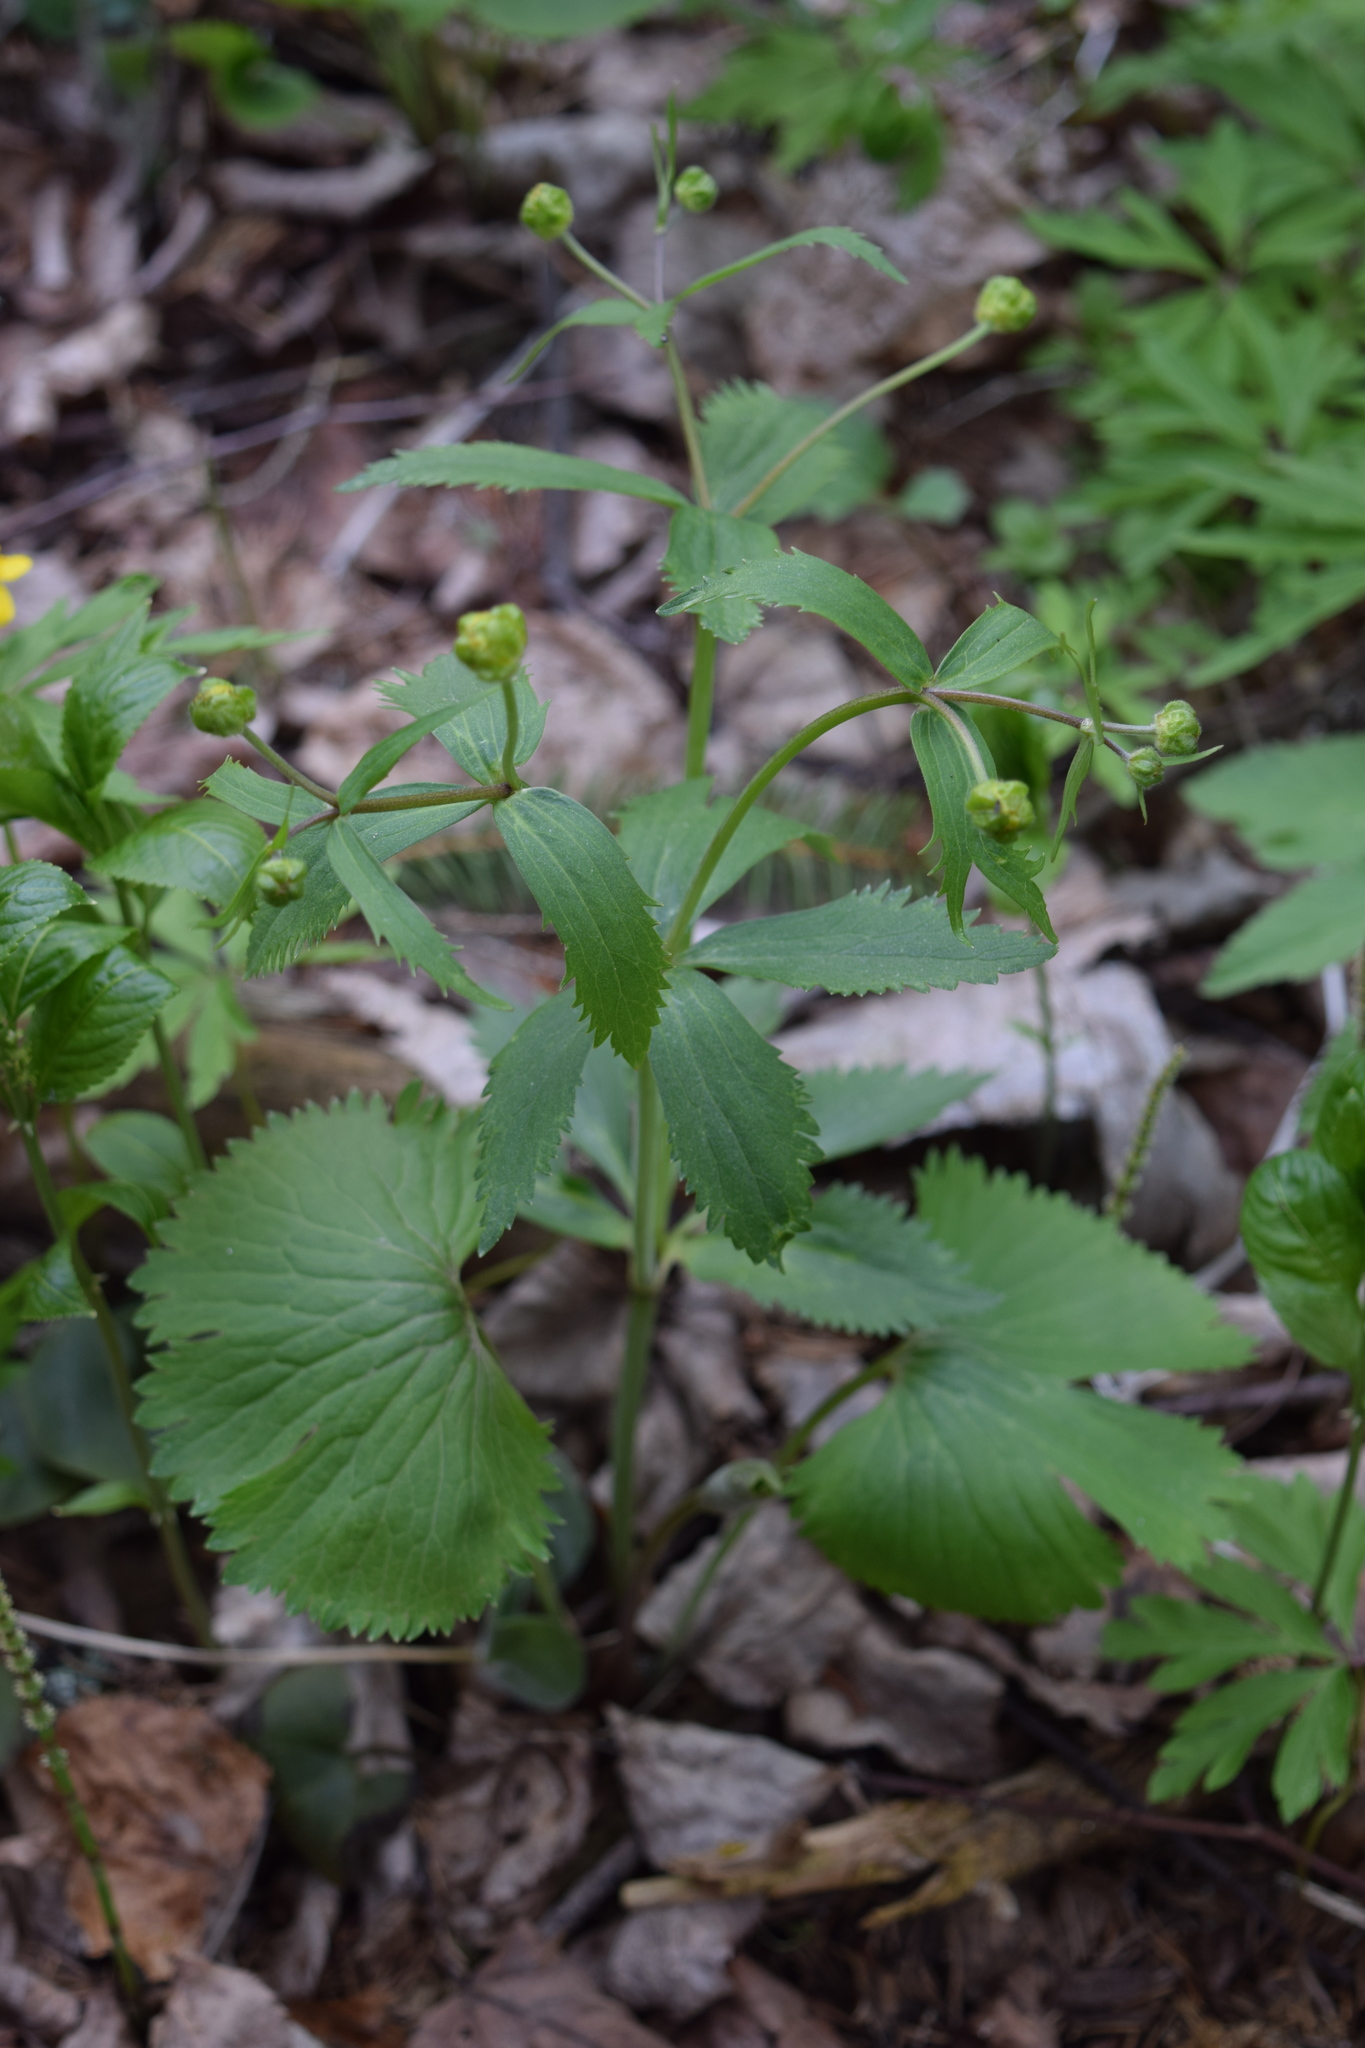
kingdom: Plantae
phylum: Tracheophyta
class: Magnoliopsida
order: Ranunculales
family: Ranunculaceae
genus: Ranunculus
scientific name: Ranunculus cassubicus
